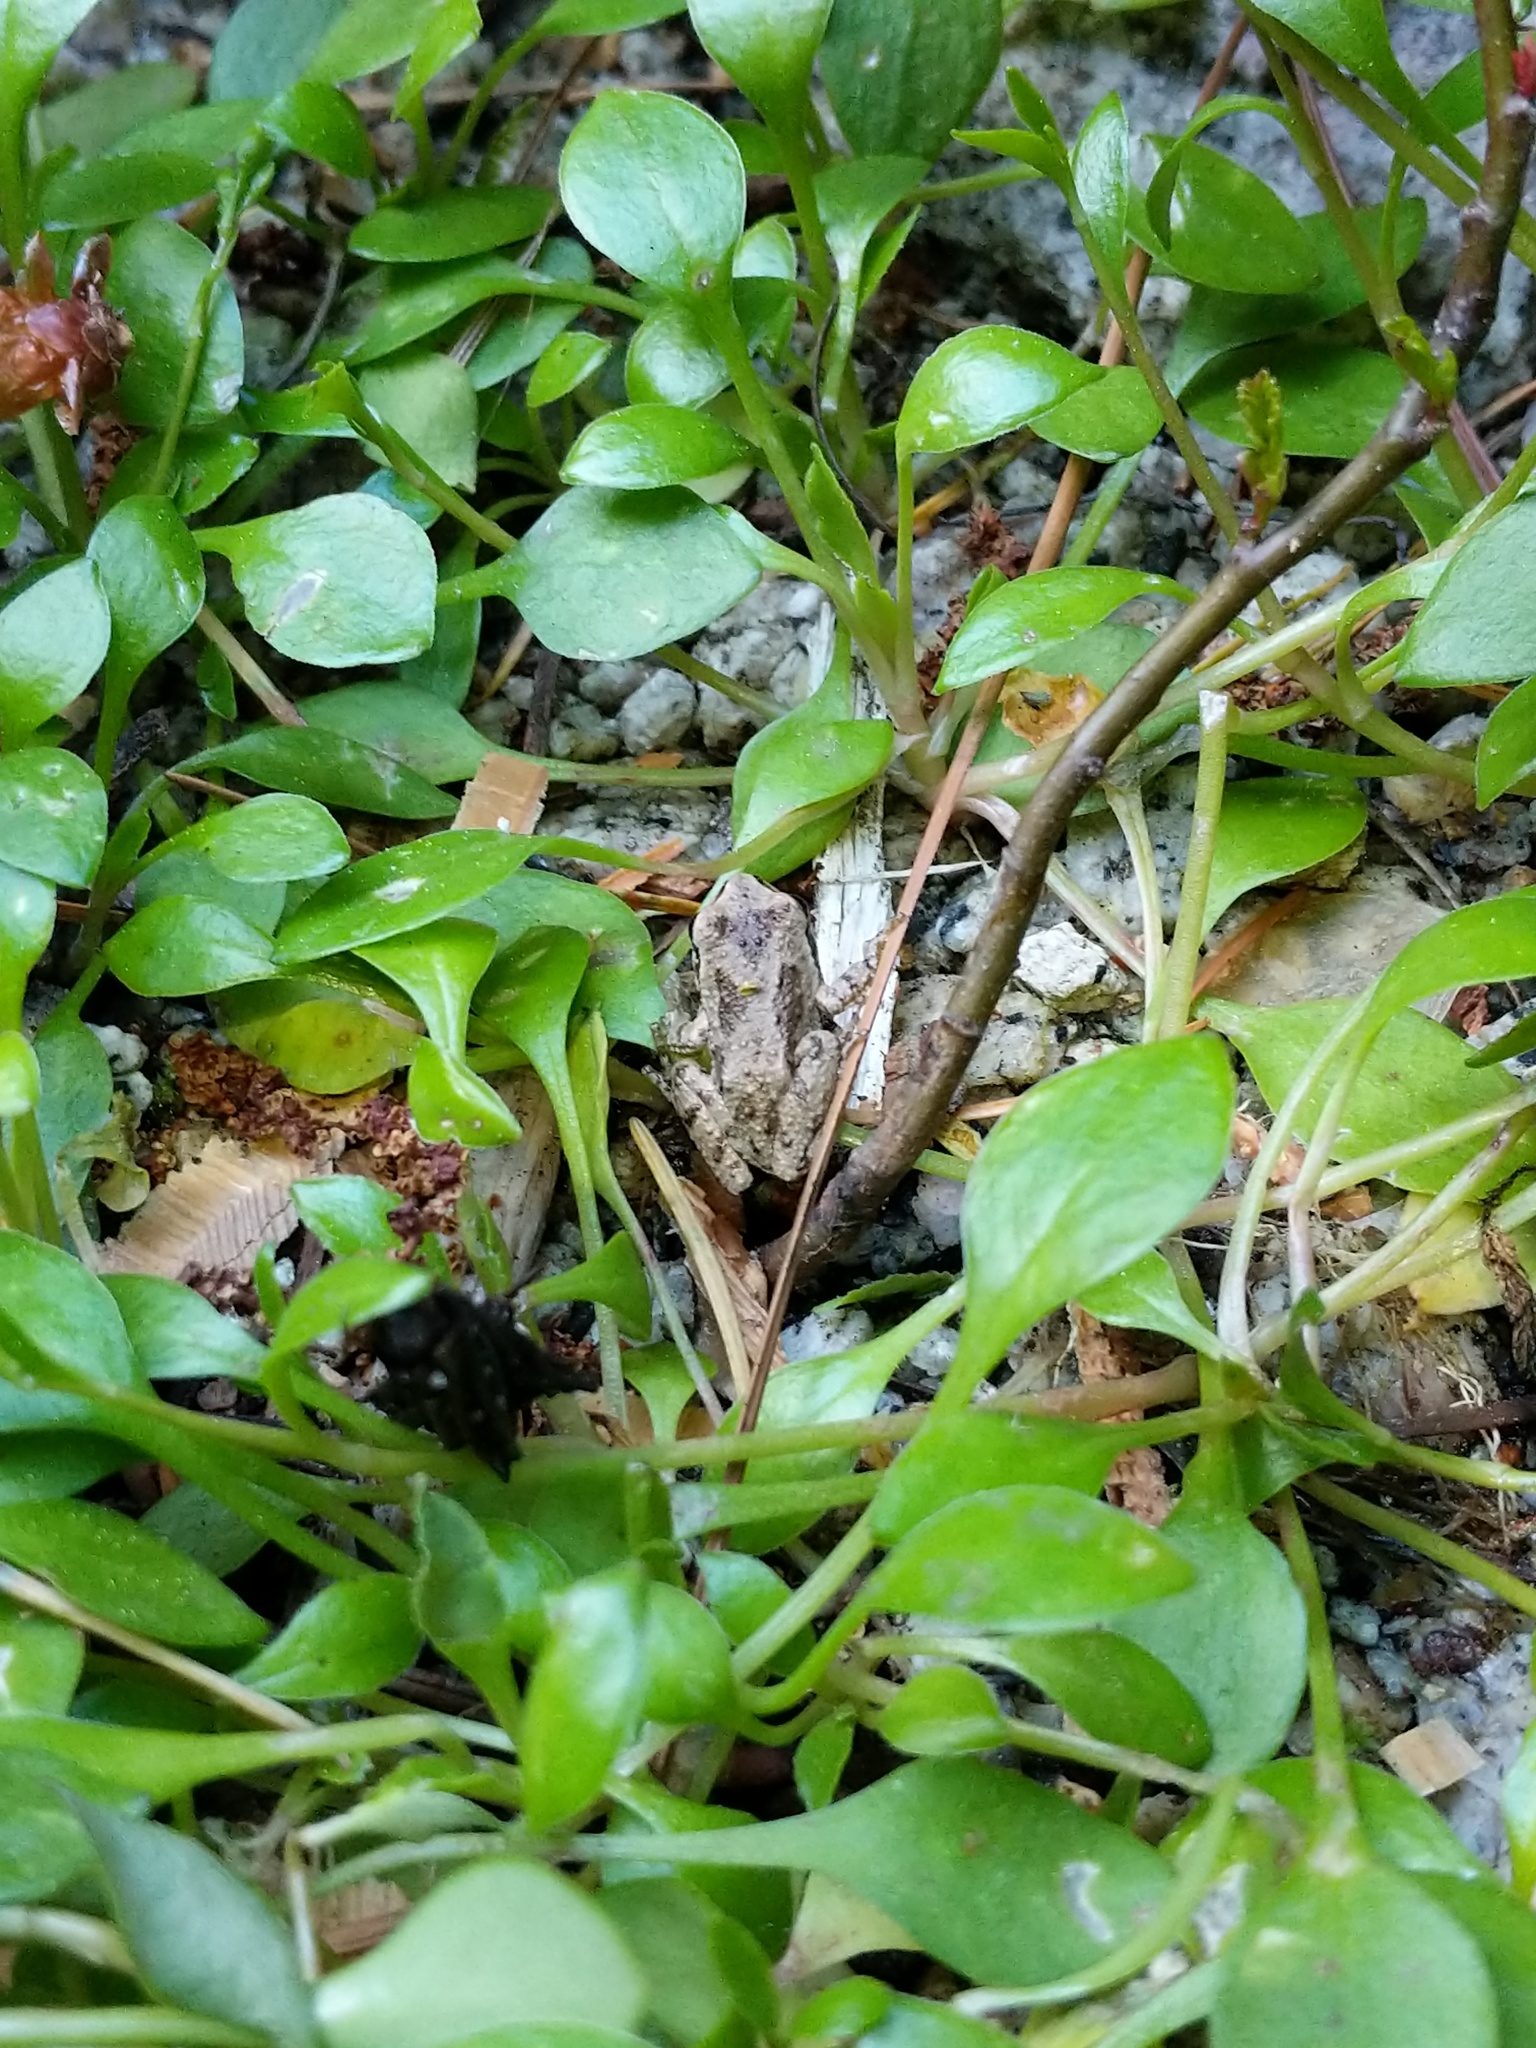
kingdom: Animalia
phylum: Chordata
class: Amphibia
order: Anura
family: Hylidae
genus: Pseudacris
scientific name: Pseudacris regilla
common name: Pacific chorus frog
